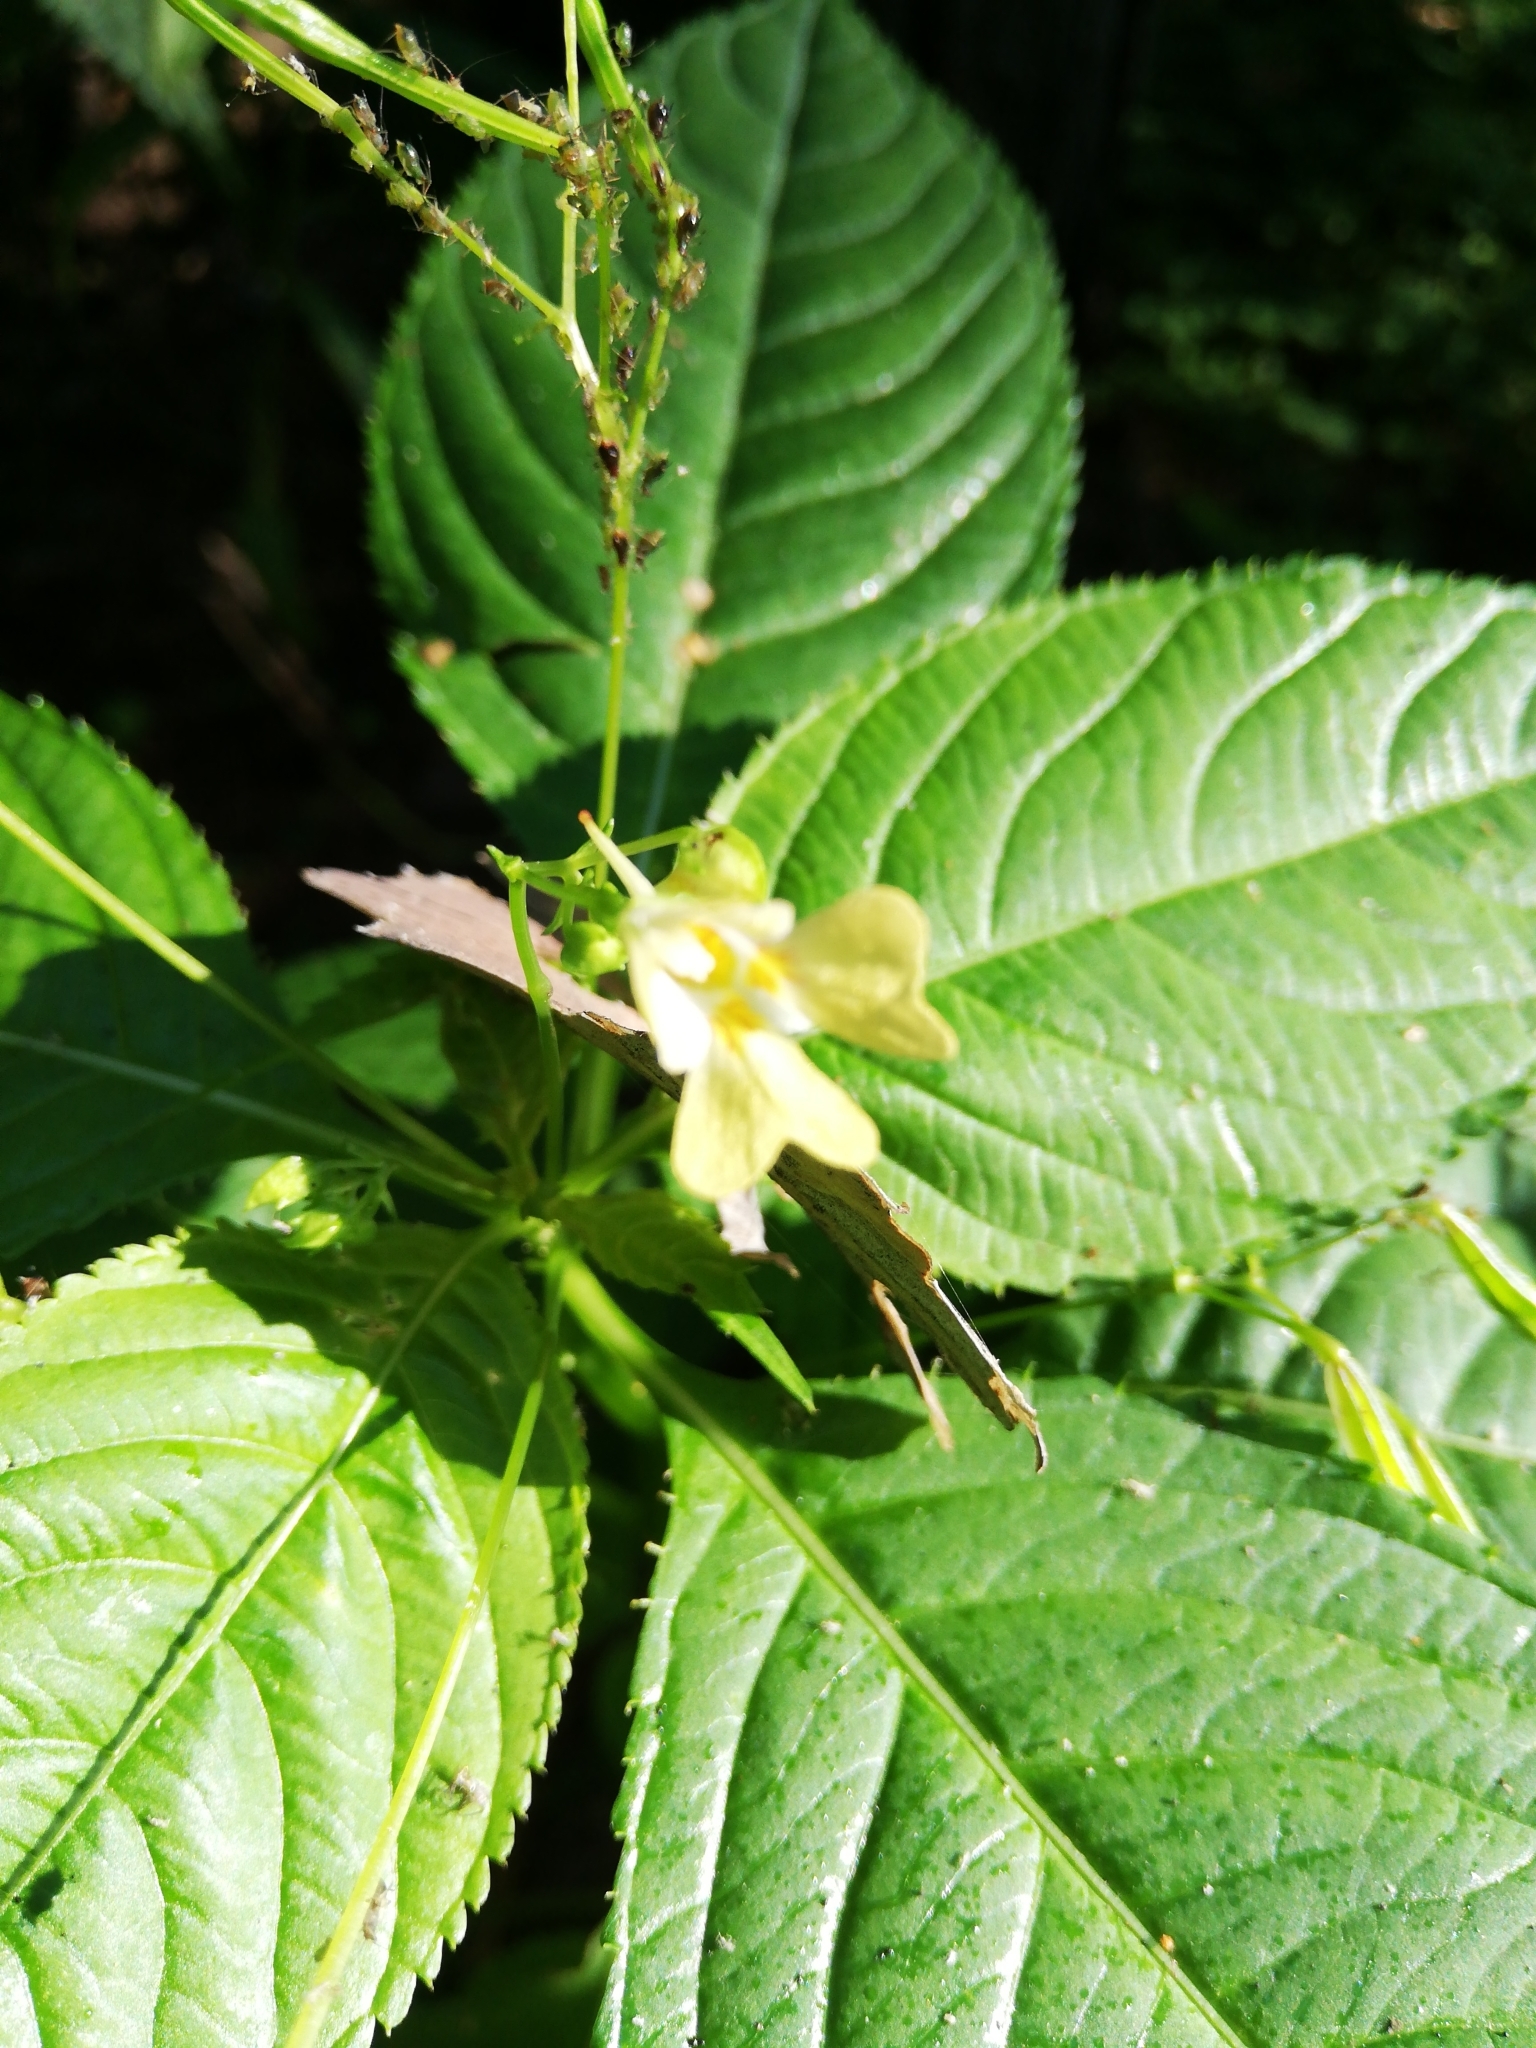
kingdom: Plantae
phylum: Tracheophyta
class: Magnoliopsida
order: Ericales
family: Balsaminaceae
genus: Impatiens
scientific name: Impatiens parviflora
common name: Small balsam
